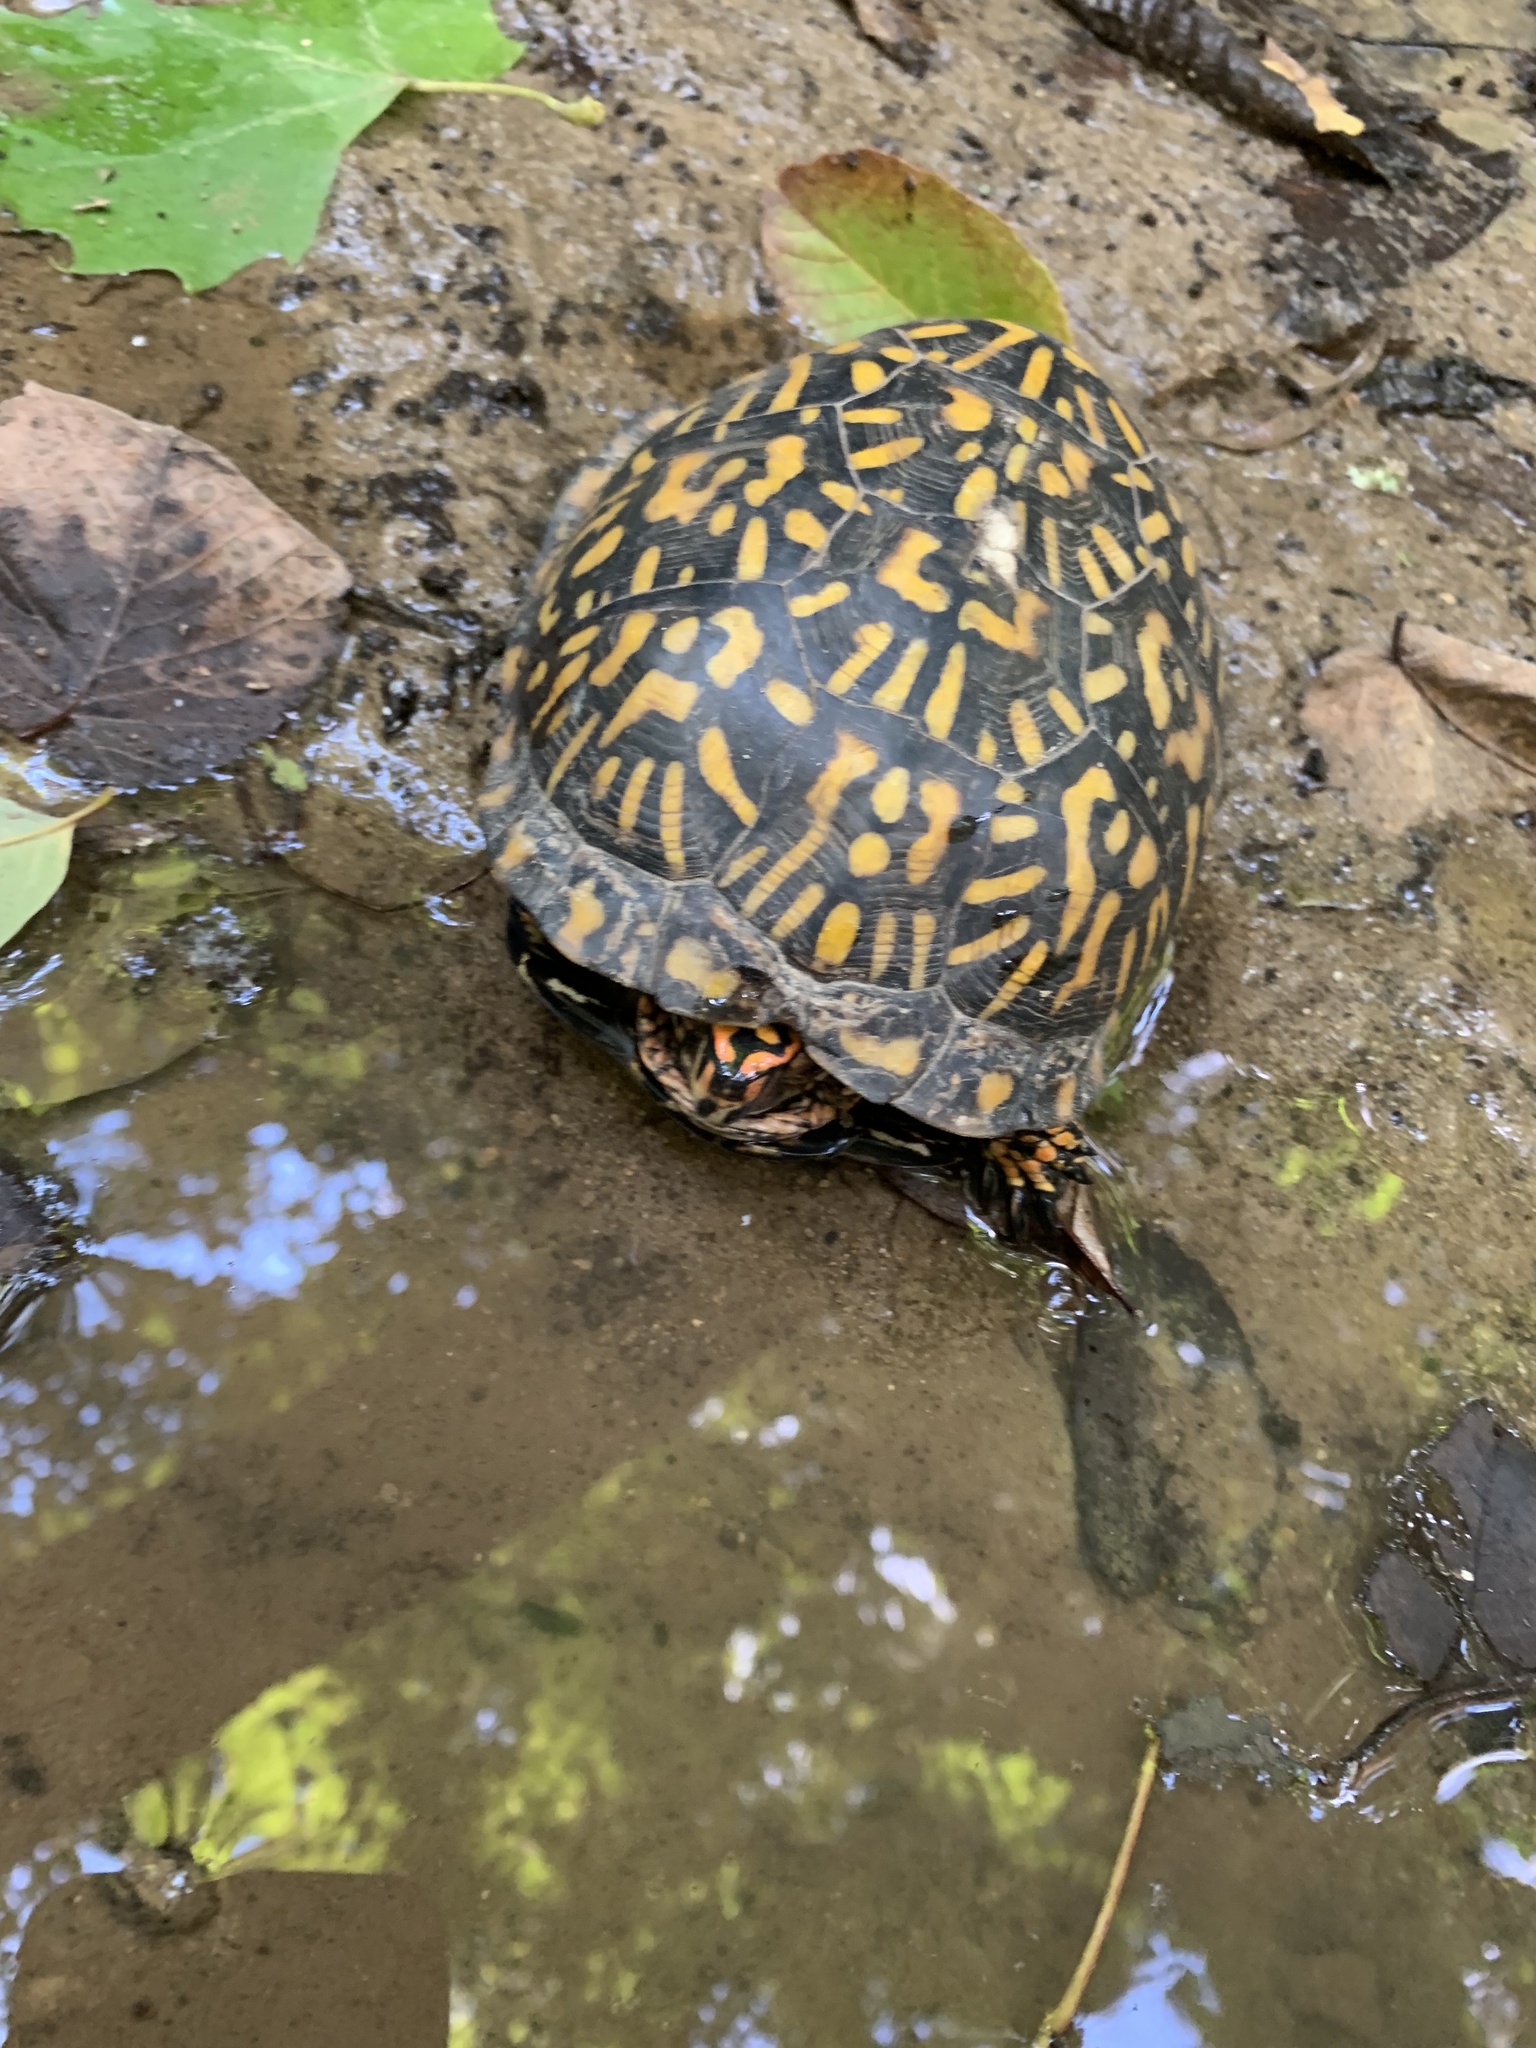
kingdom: Animalia
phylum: Chordata
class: Testudines
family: Emydidae
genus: Terrapene
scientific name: Terrapene carolina
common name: Common box turtle
